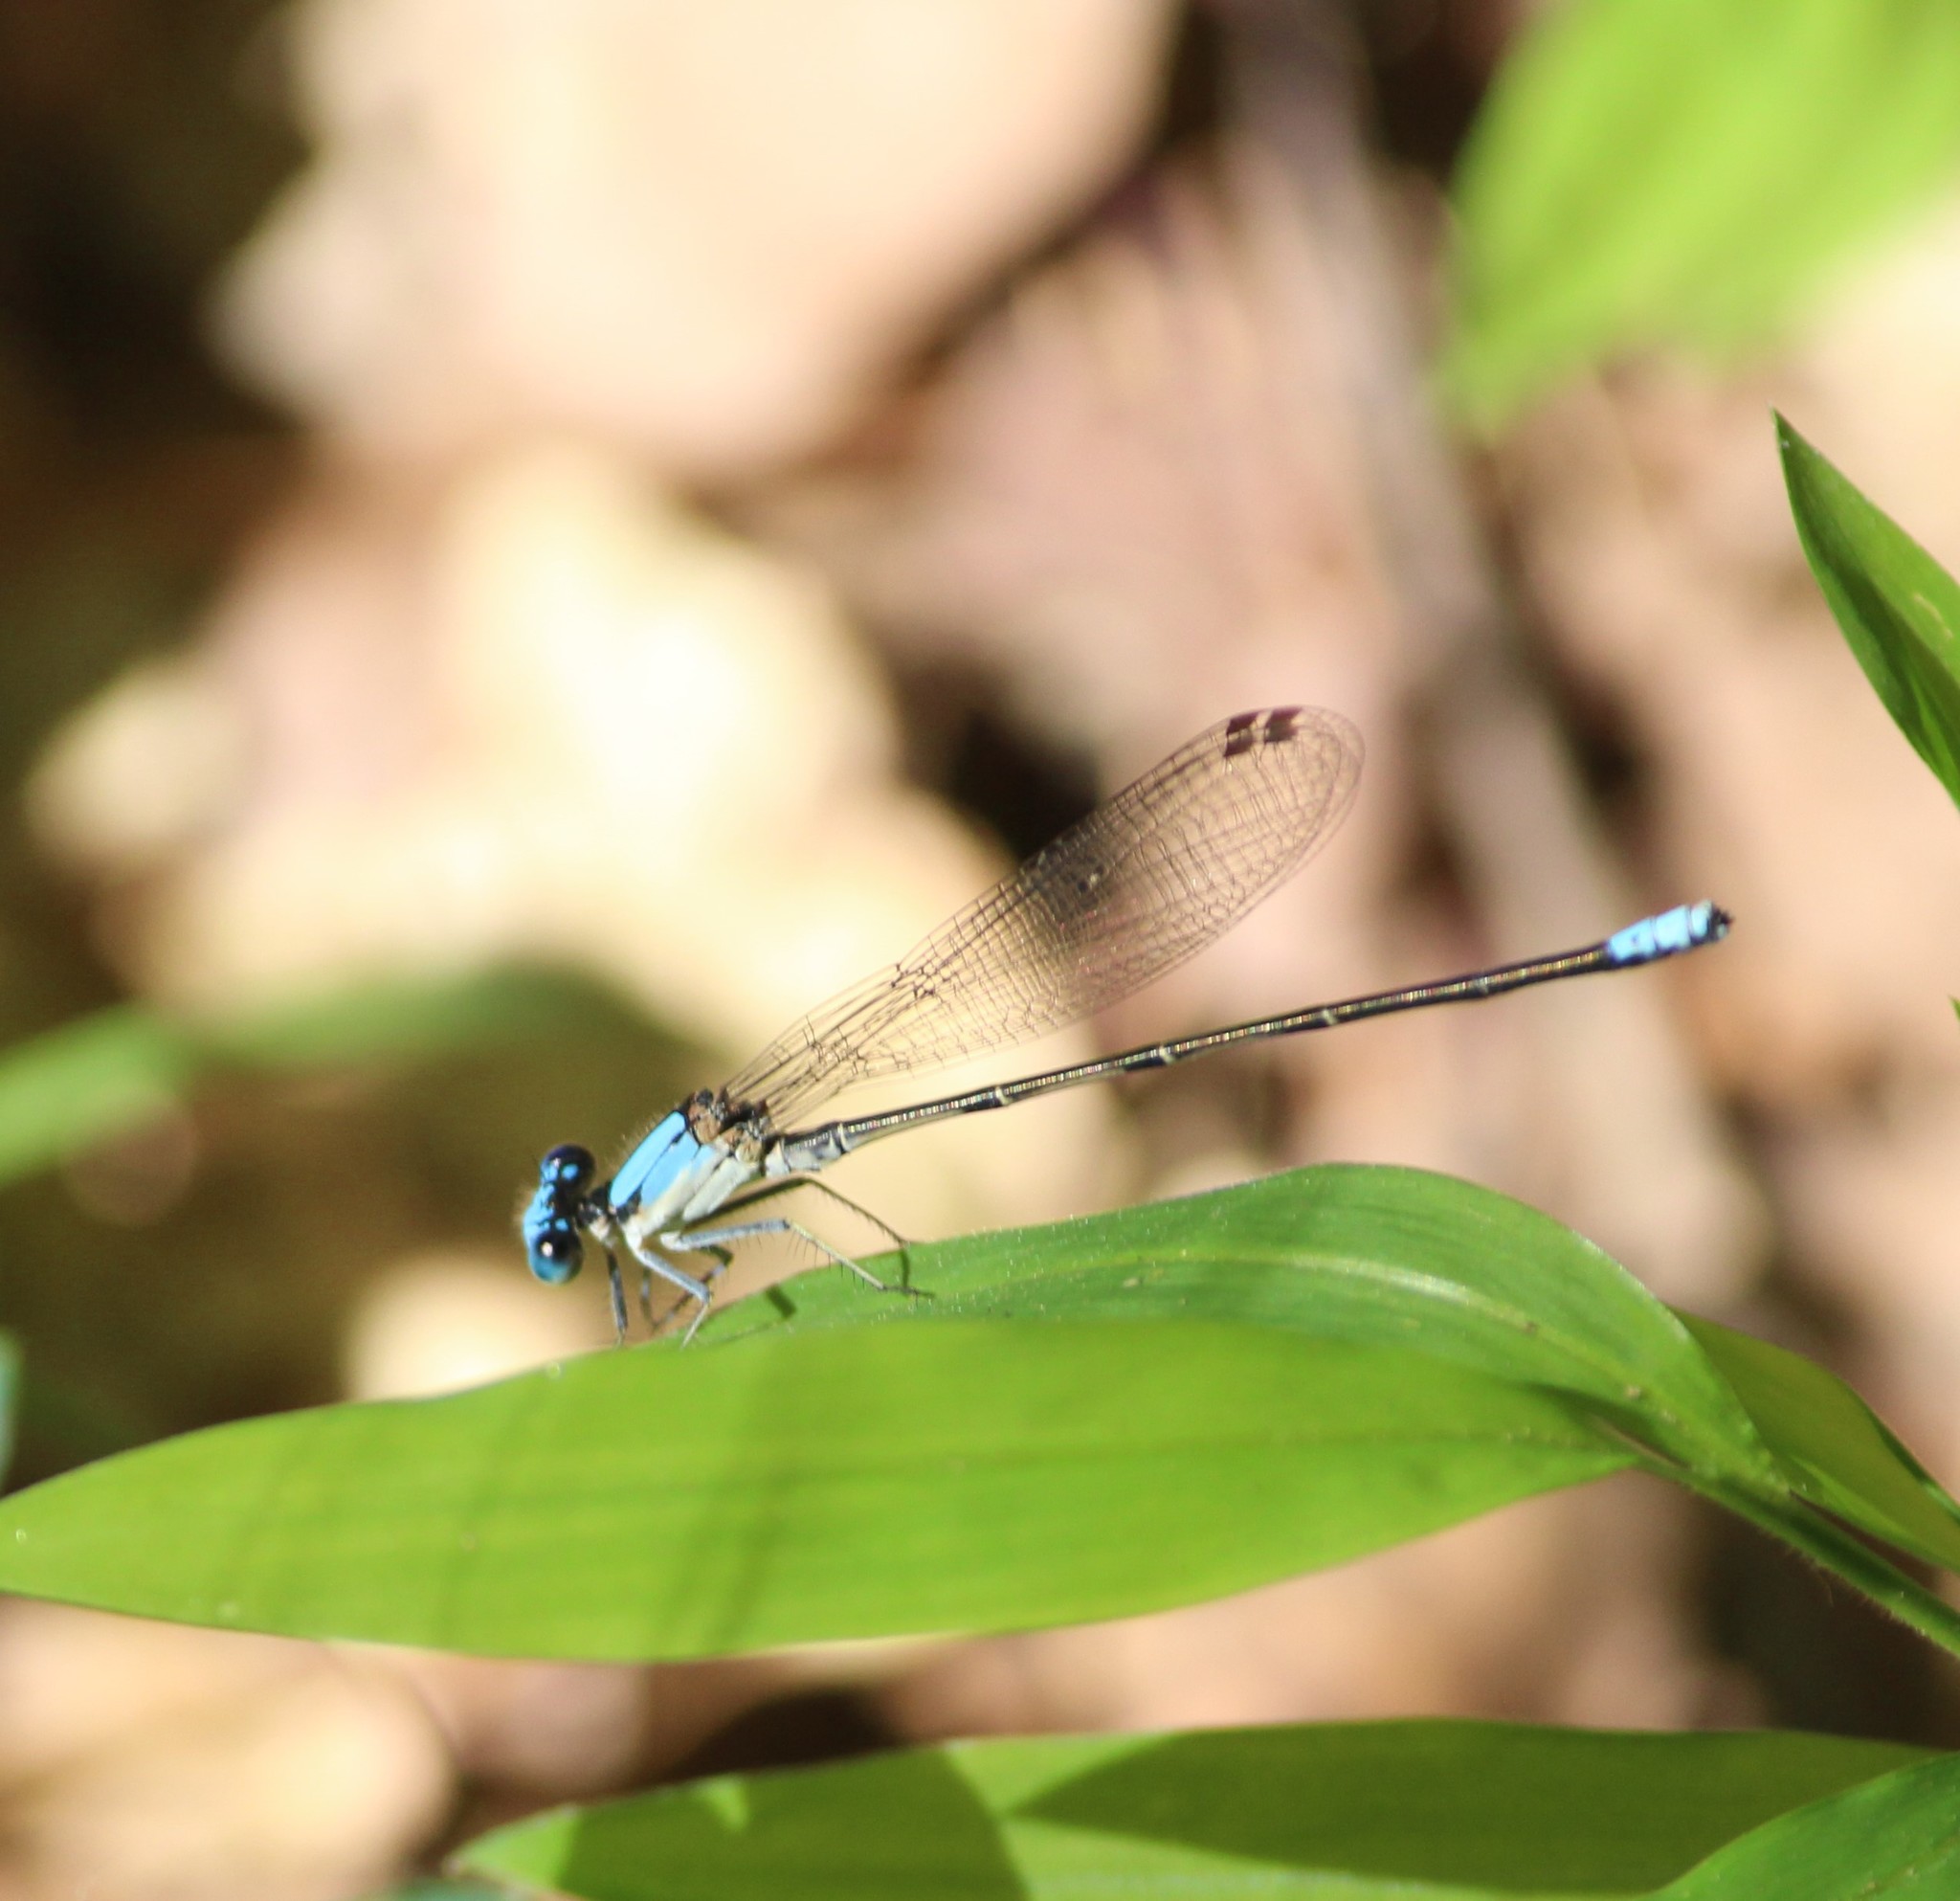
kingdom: Animalia
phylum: Arthropoda
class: Insecta
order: Odonata
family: Coenagrionidae
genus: Argia
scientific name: Argia apicalis
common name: Blue-fronted dancer
